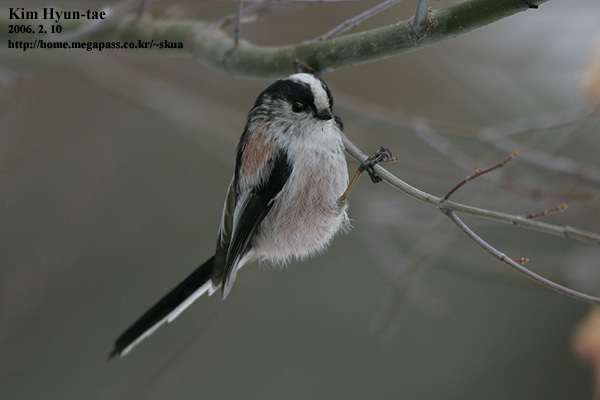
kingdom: Animalia
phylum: Chordata
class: Aves
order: Passeriformes
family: Aegithalidae
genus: Aegithalos
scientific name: Aegithalos caudatus
